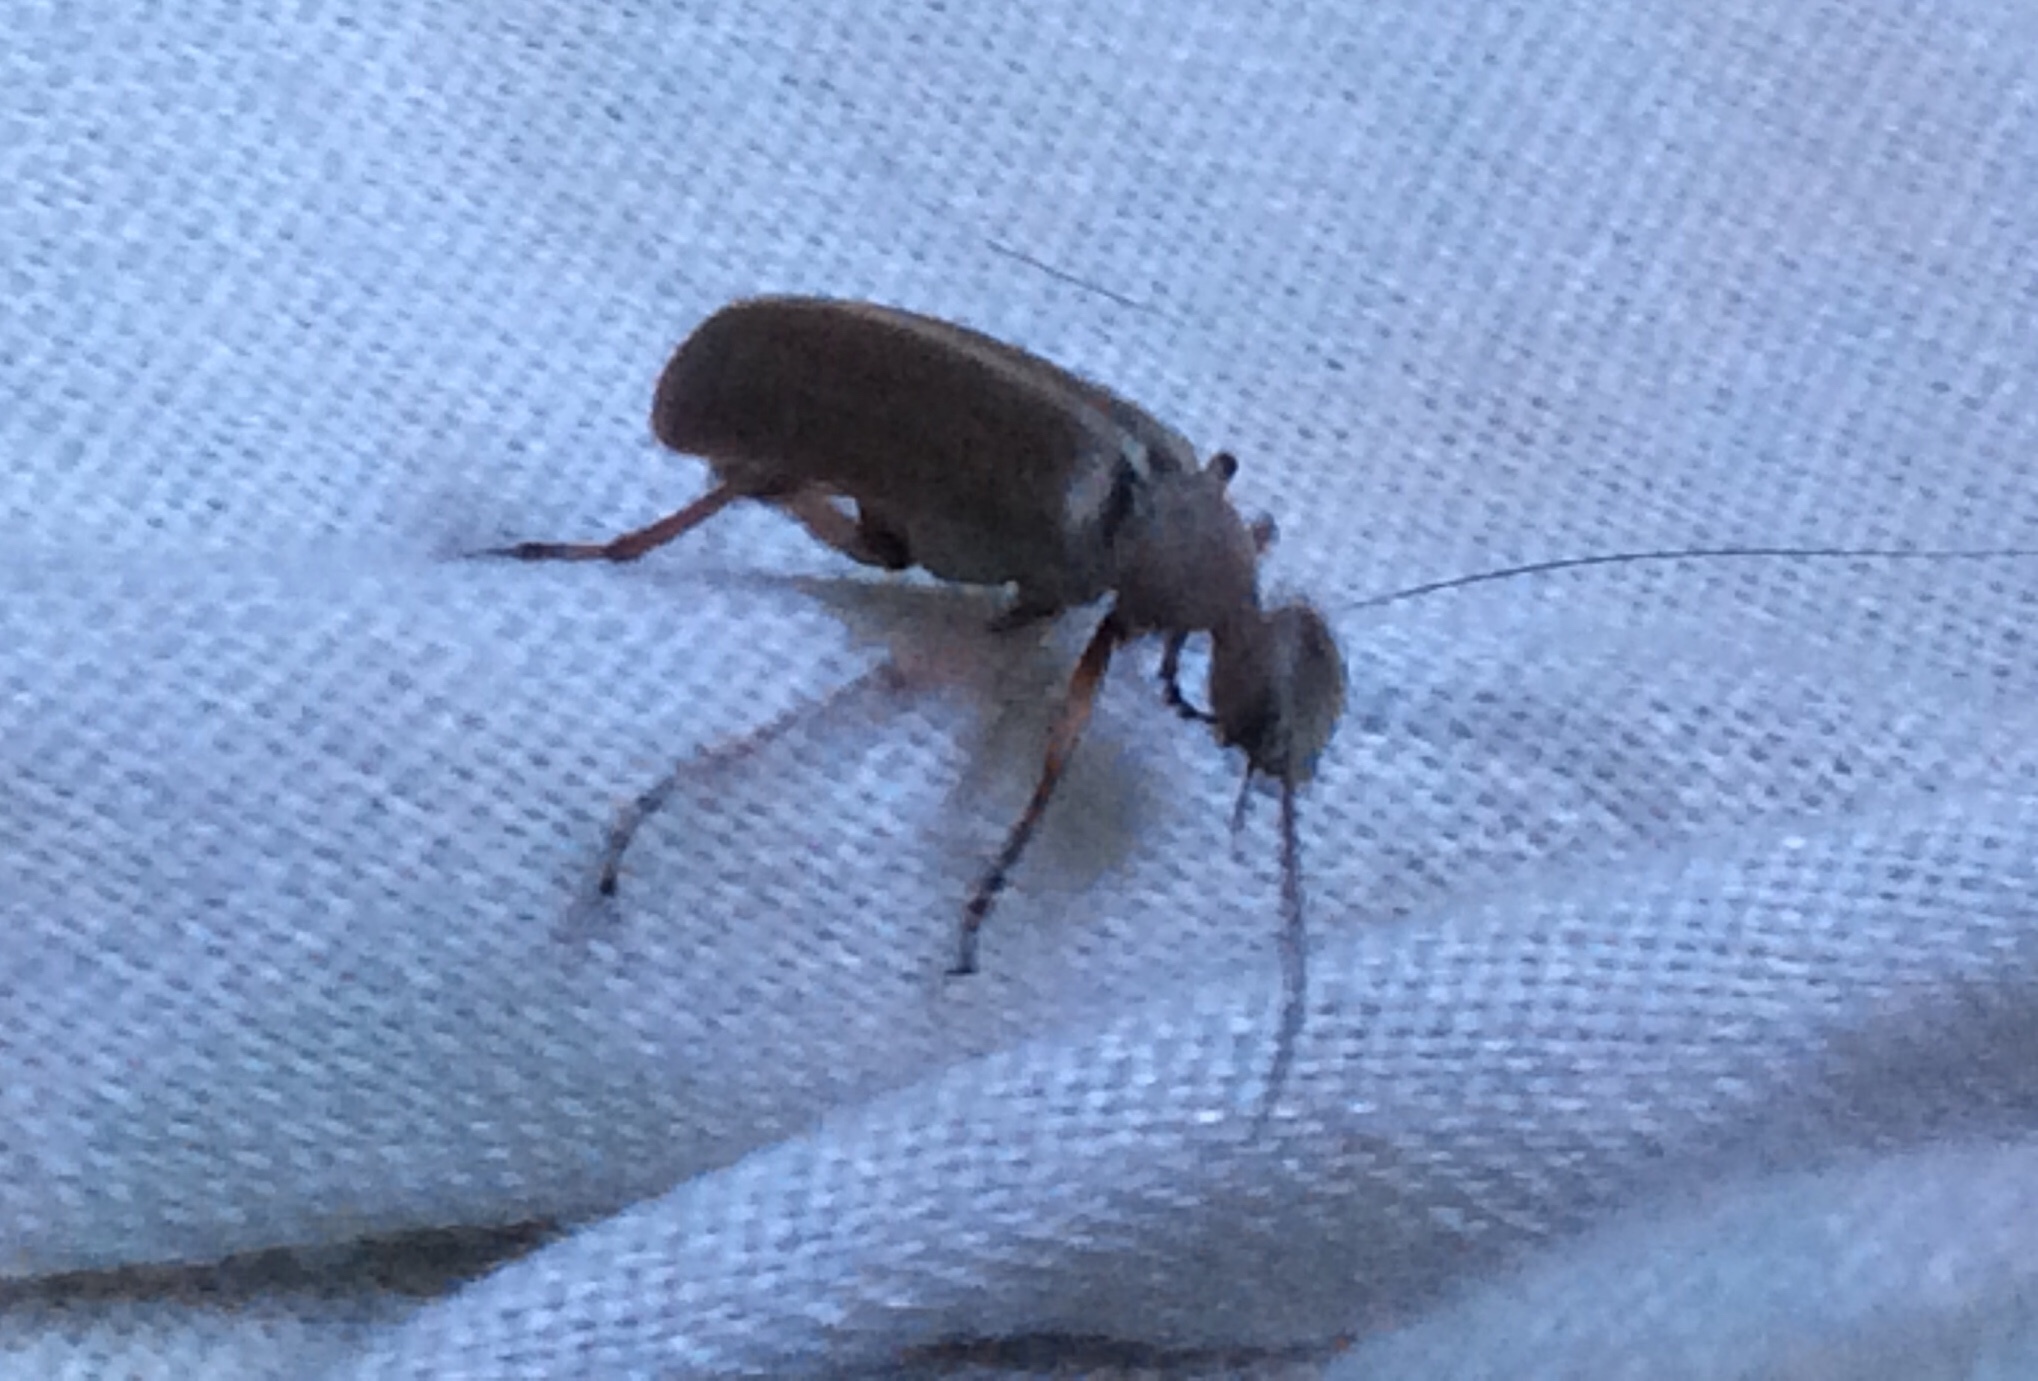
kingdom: Animalia
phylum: Arthropoda
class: Insecta
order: Coleoptera
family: Meloidae
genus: Epicauta
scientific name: Epicauta nigritarsis
